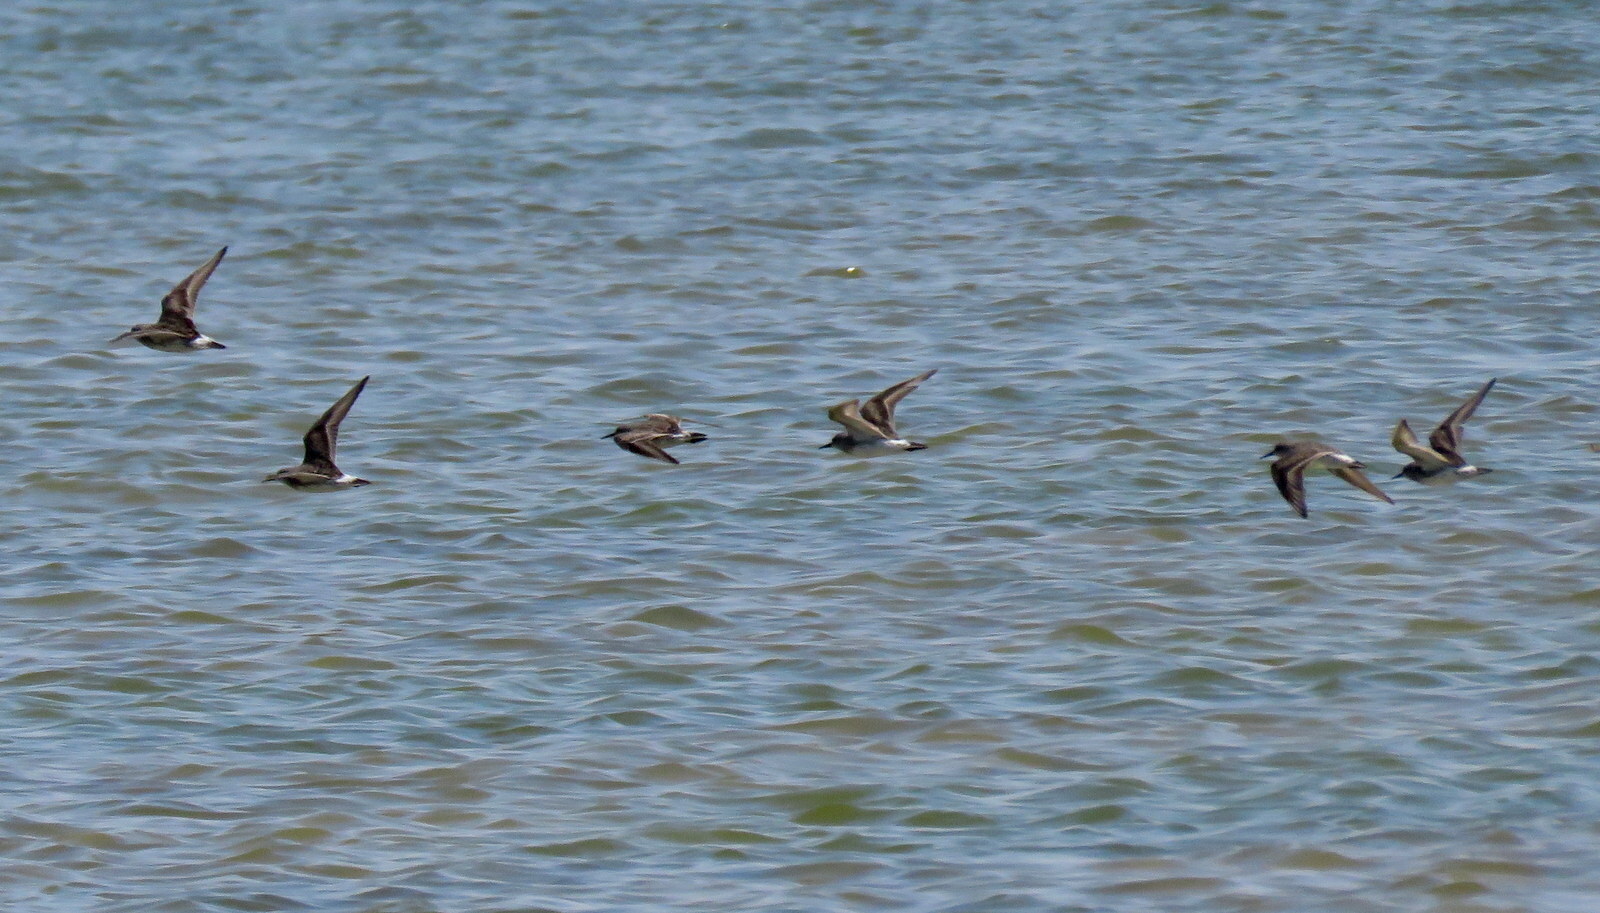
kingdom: Animalia
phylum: Chordata
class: Aves
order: Charadriiformes
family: Scolopacidae
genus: Calidris
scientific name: Calidris fuscicollis
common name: White-rumped sandpiper
